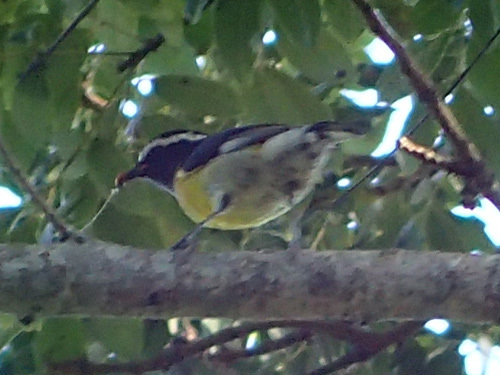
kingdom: Animalia
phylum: Chordata
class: Aves
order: Passeriformes
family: Thraupidae
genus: Coereba
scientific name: Coereba flaveola
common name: Bananaquit
